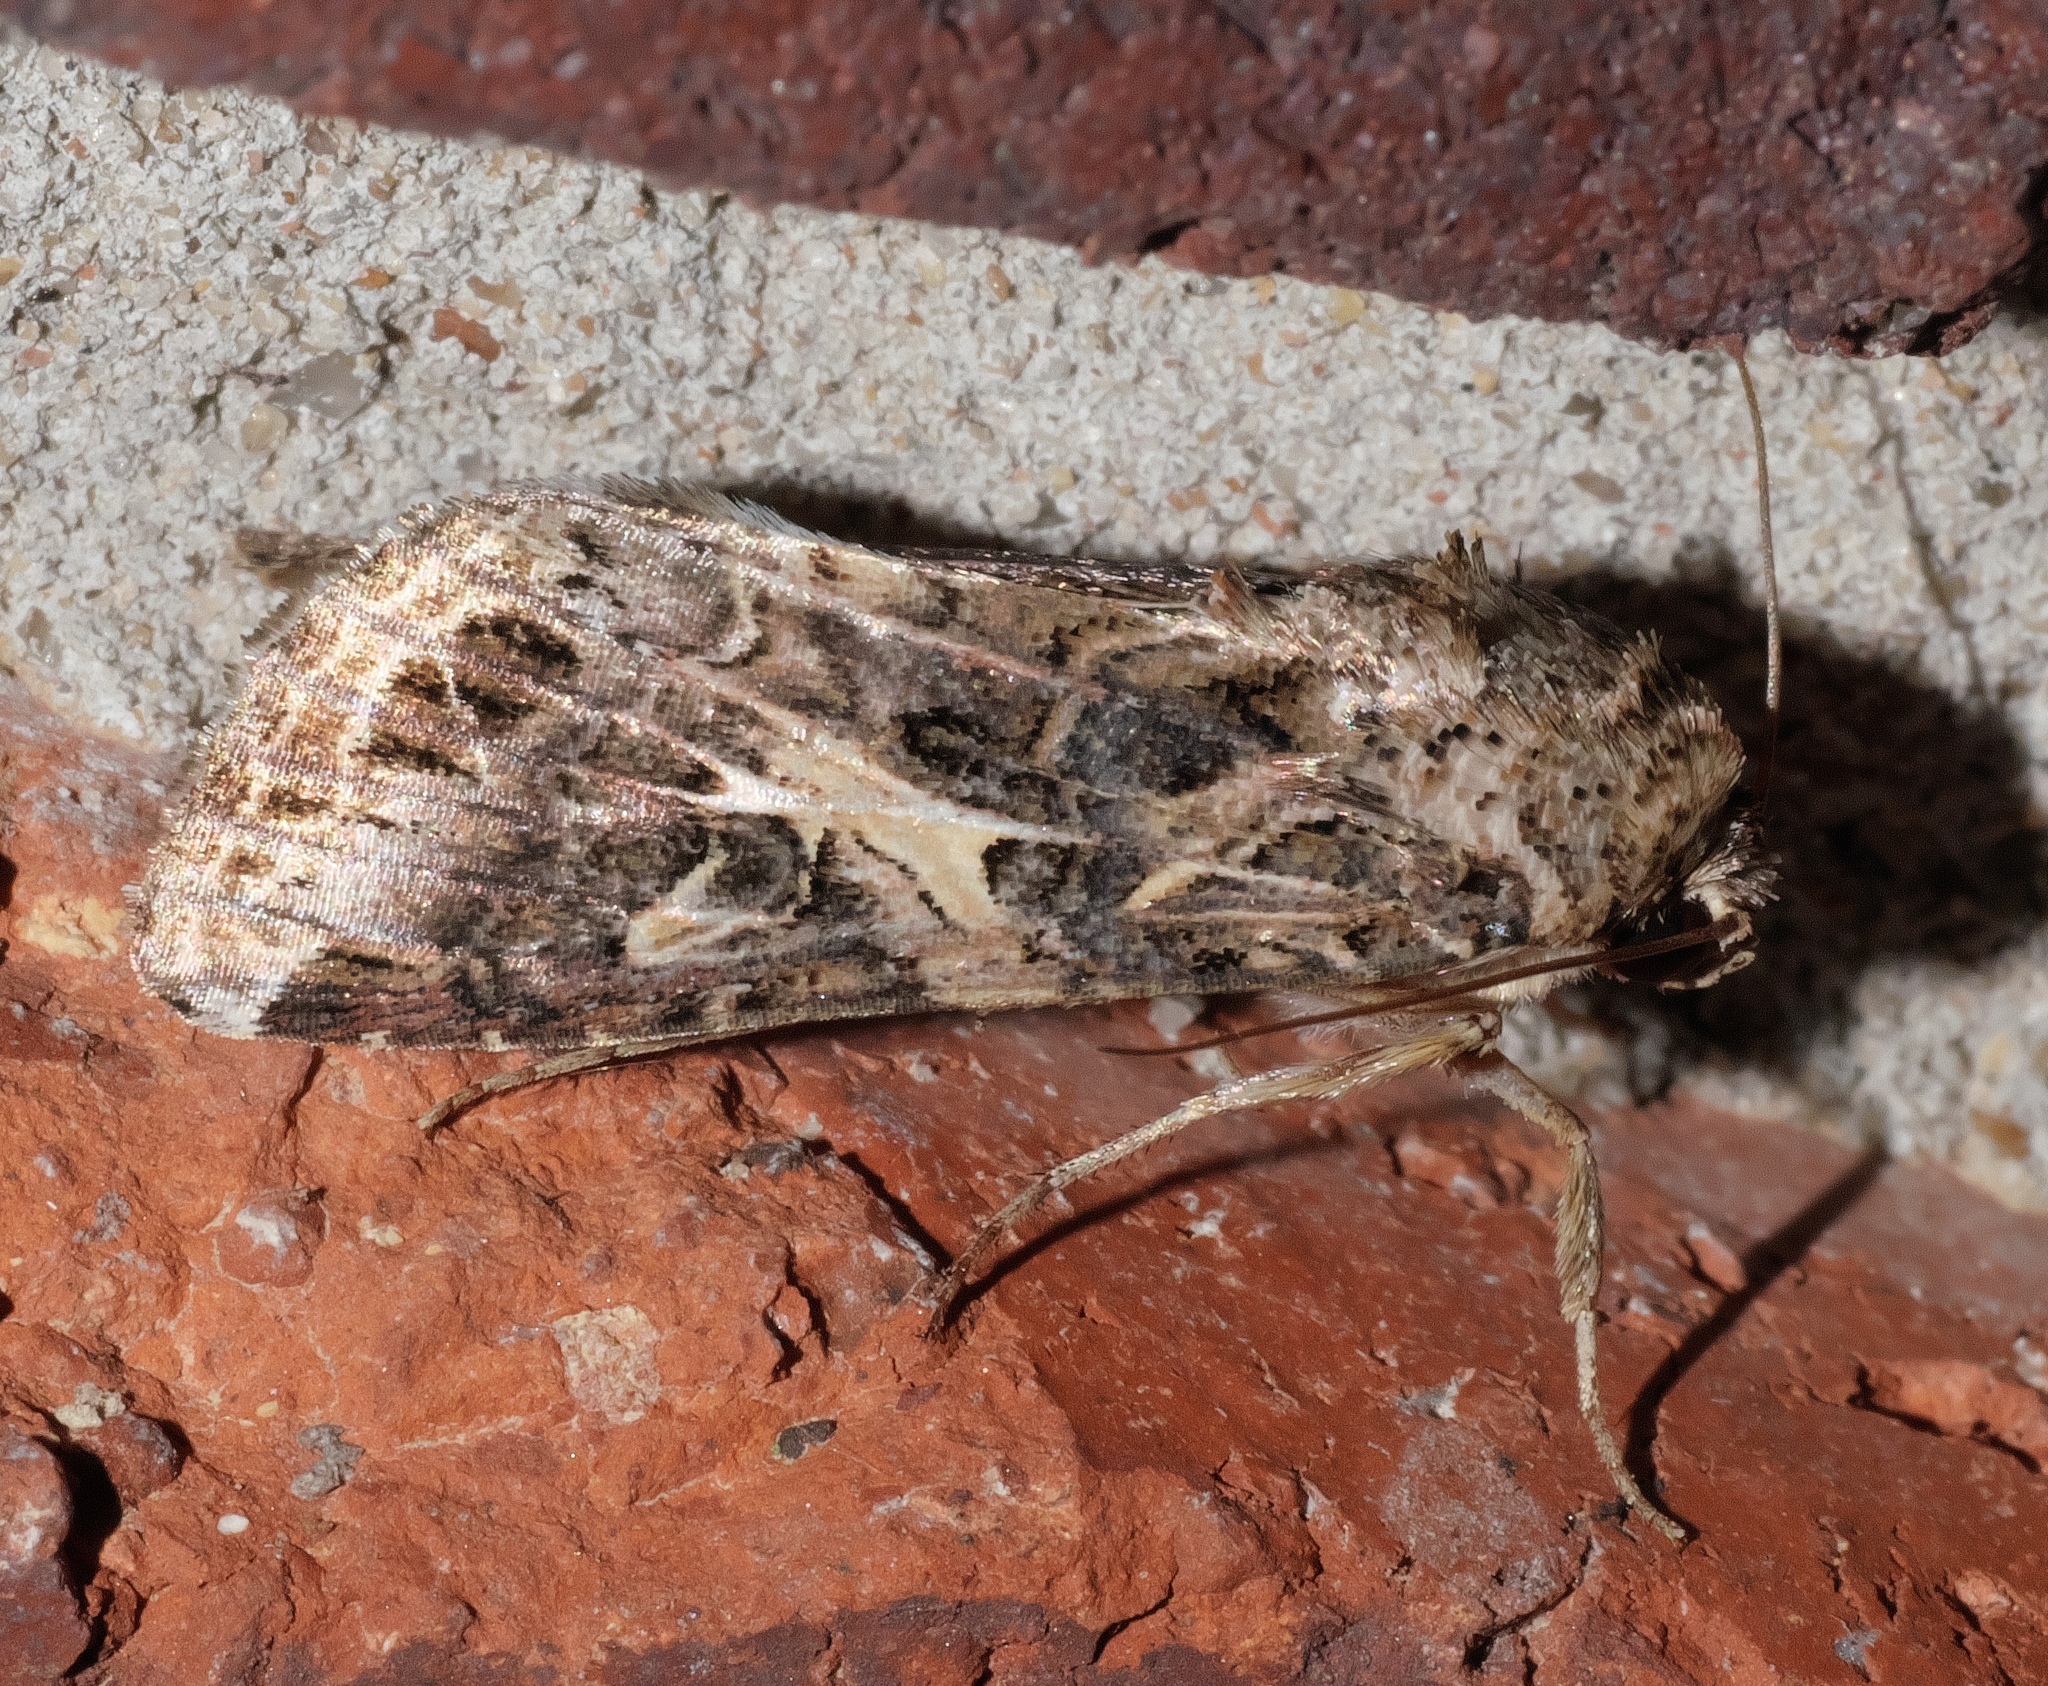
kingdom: Animalia
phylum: Arthropoda
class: Insecta
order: Lepidoptera
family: Noctuidae
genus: Spodoptera
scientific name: Spodoptera ornithogalli
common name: Yellow-striped armyworm
